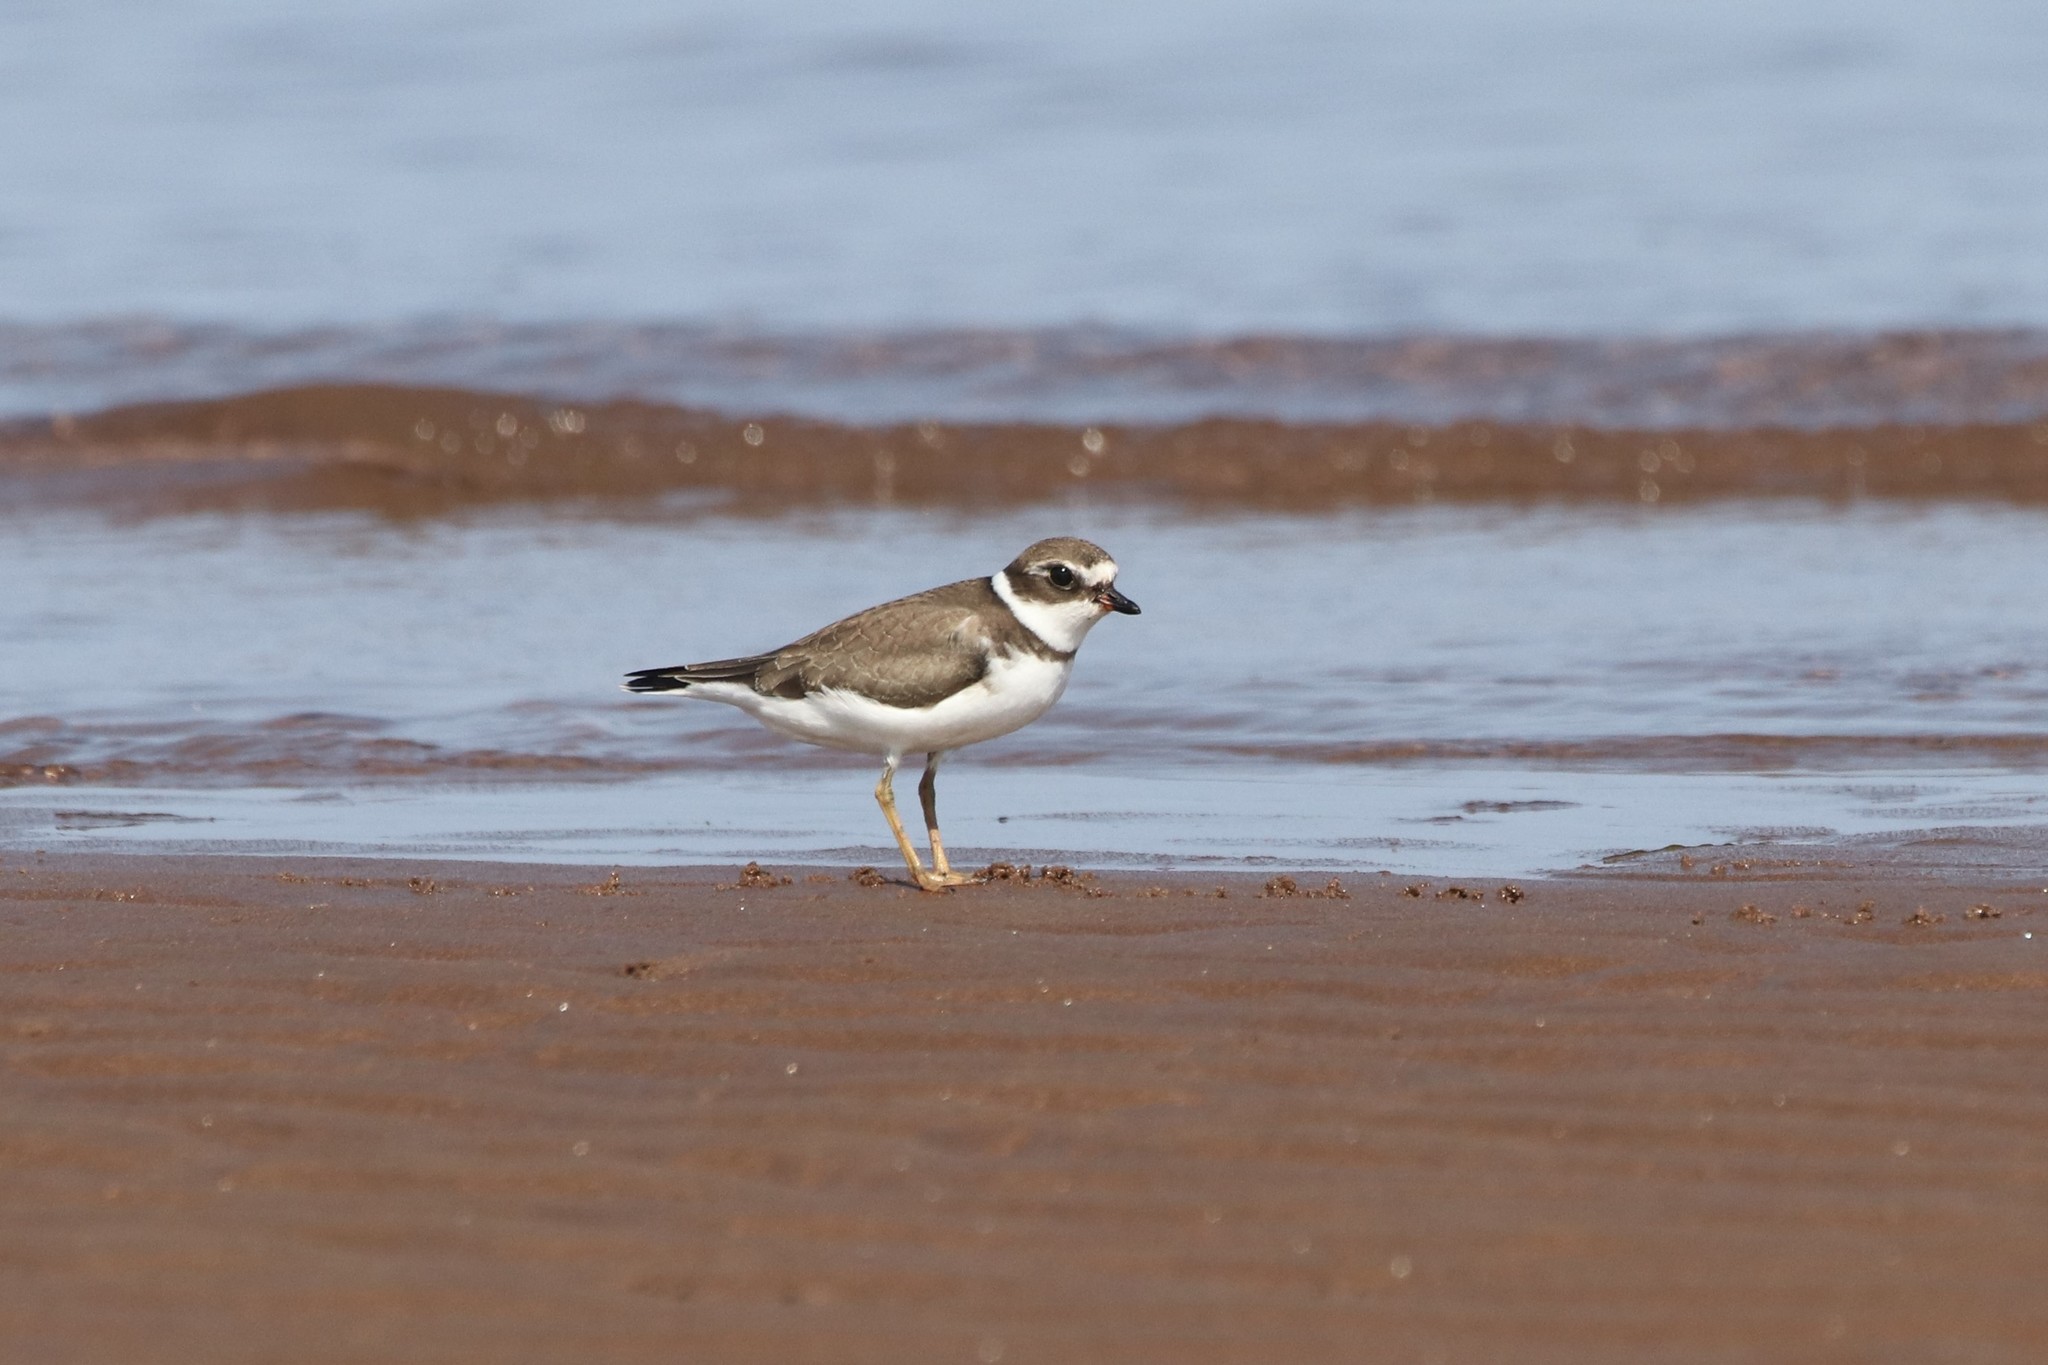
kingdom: Animalia
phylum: Chordata
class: Aves
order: Charadriiformes
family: Charadriidae
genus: Charadrius
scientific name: Charadrius semipalmatus
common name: Semipalmated plover
